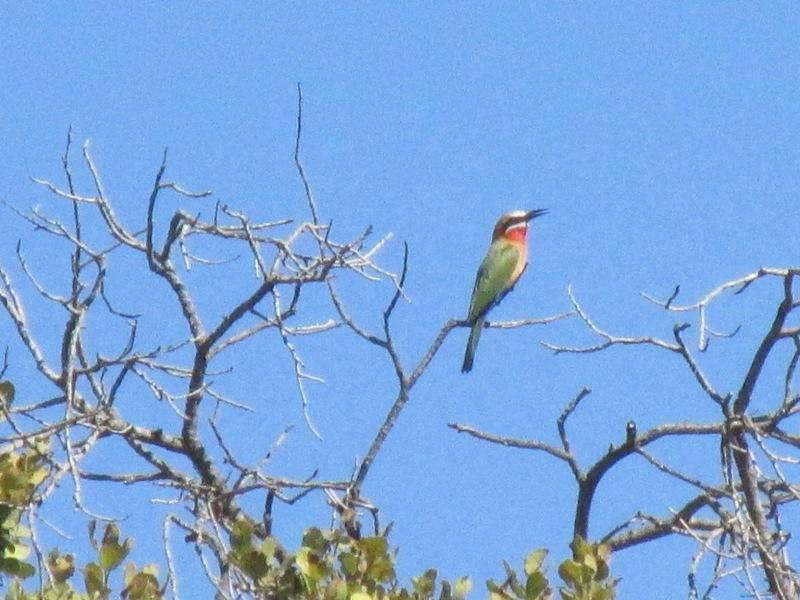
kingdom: Animalia
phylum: Chordata
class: Aves
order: Coraciiformes
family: Meropidae
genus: Merops
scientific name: Merops bullockoides
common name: White-fronted bee-eater
